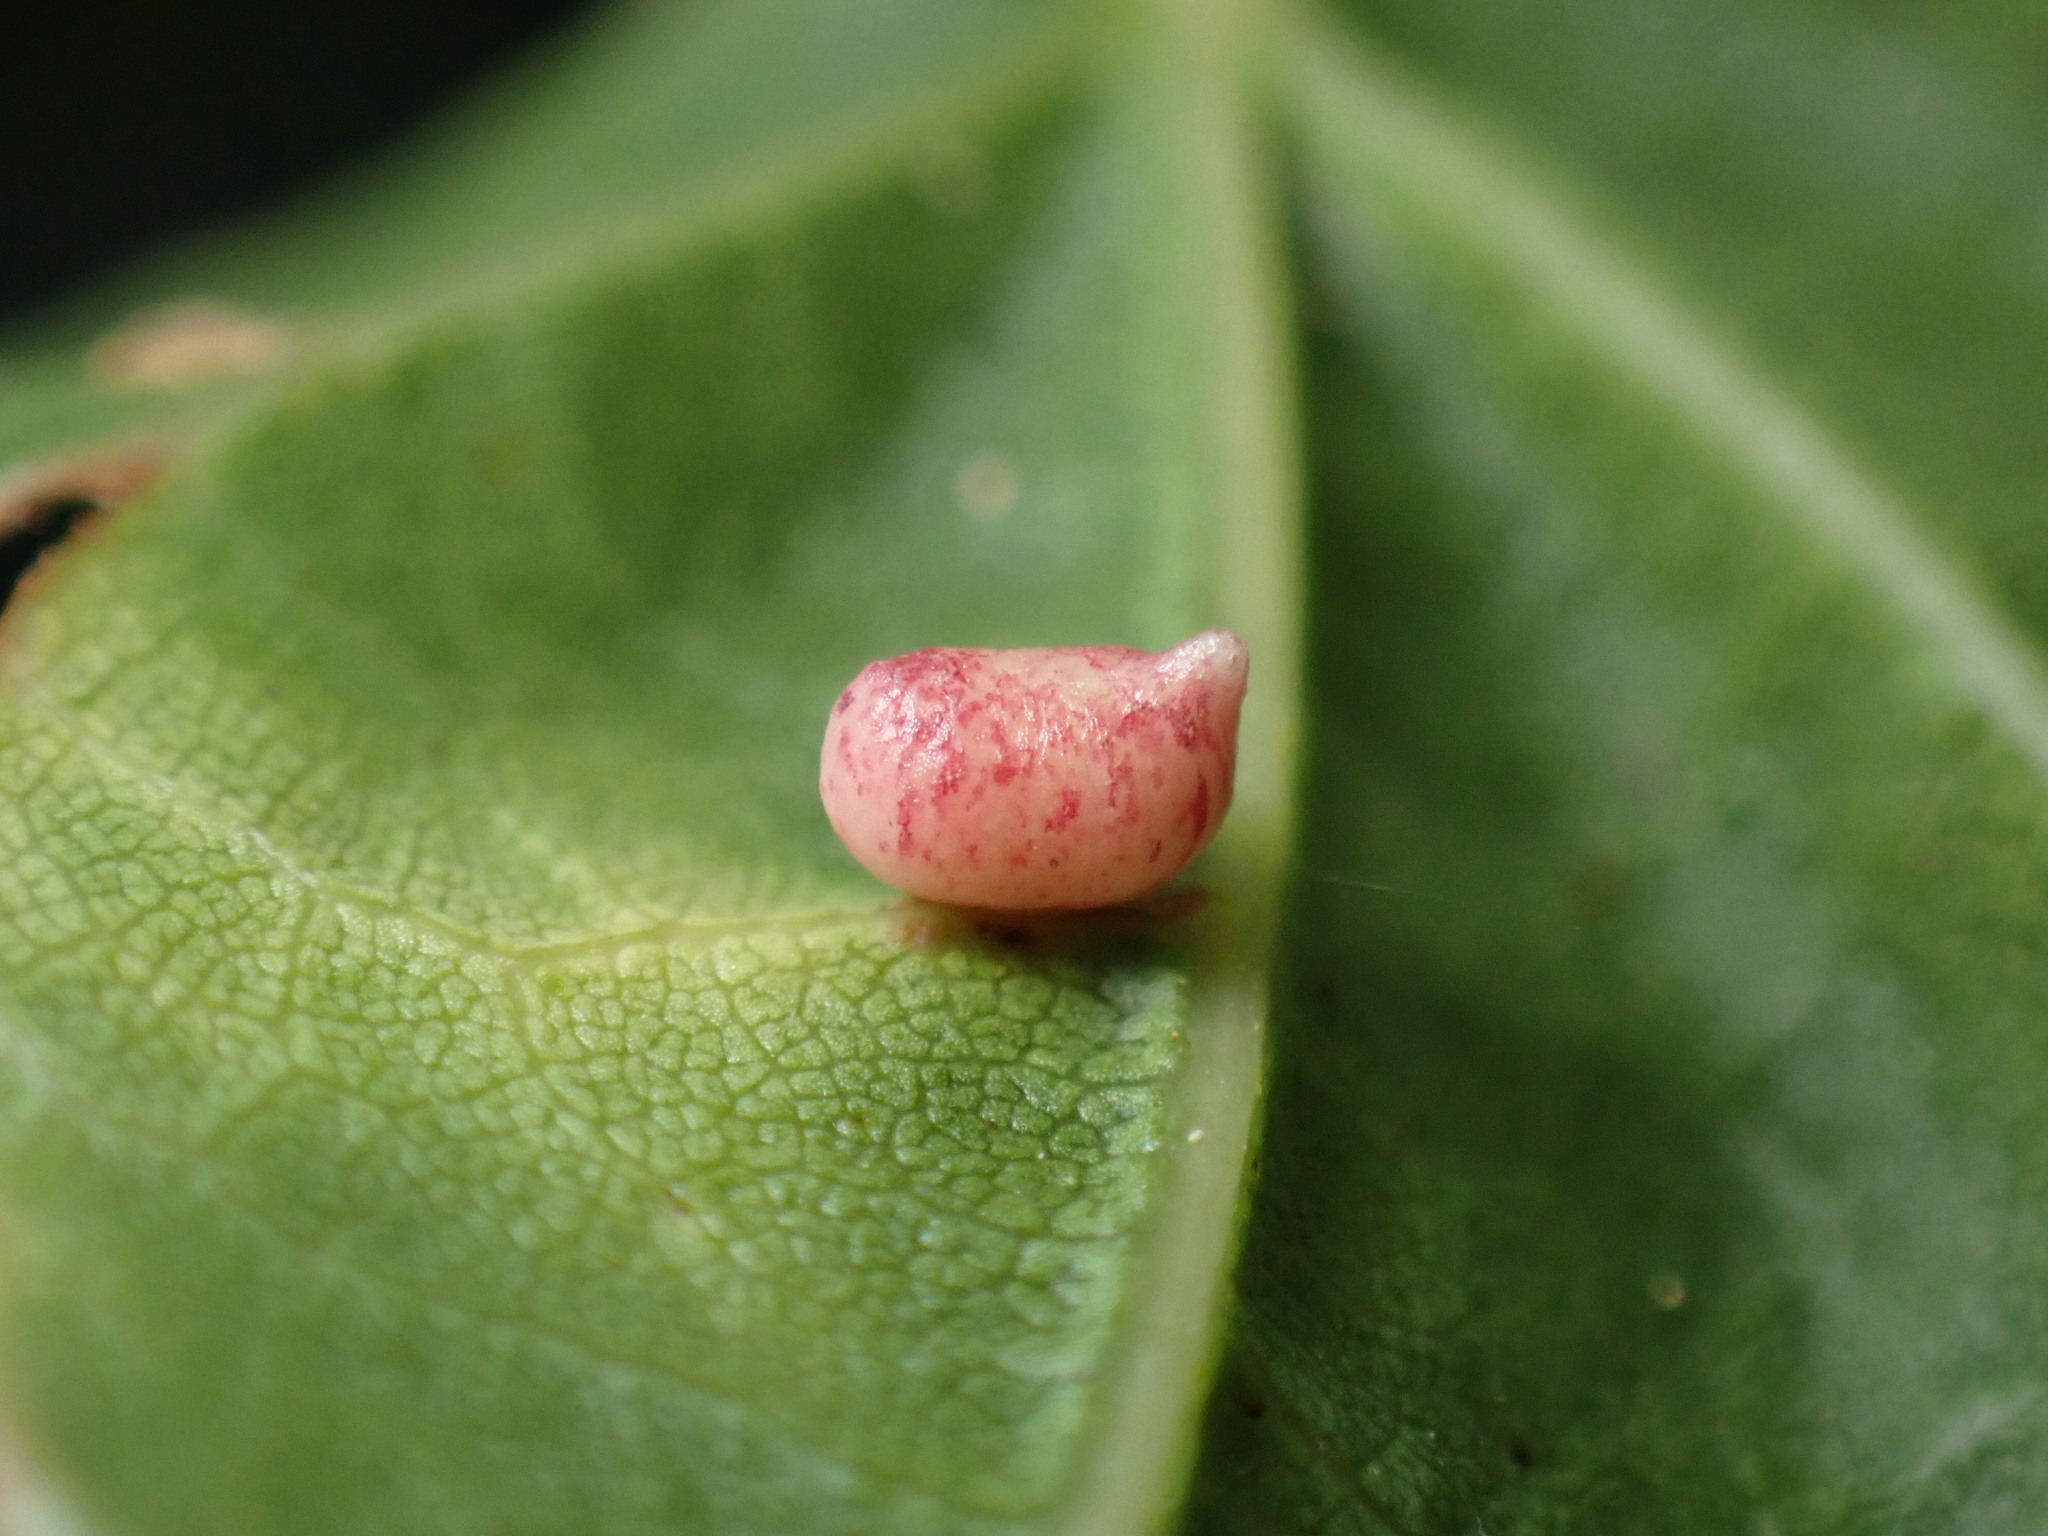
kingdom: Animalia
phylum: Arthropoda
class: Insecta
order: Hymenoptera
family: Cynipidae
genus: Dryocosmus
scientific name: Dryocosmus
